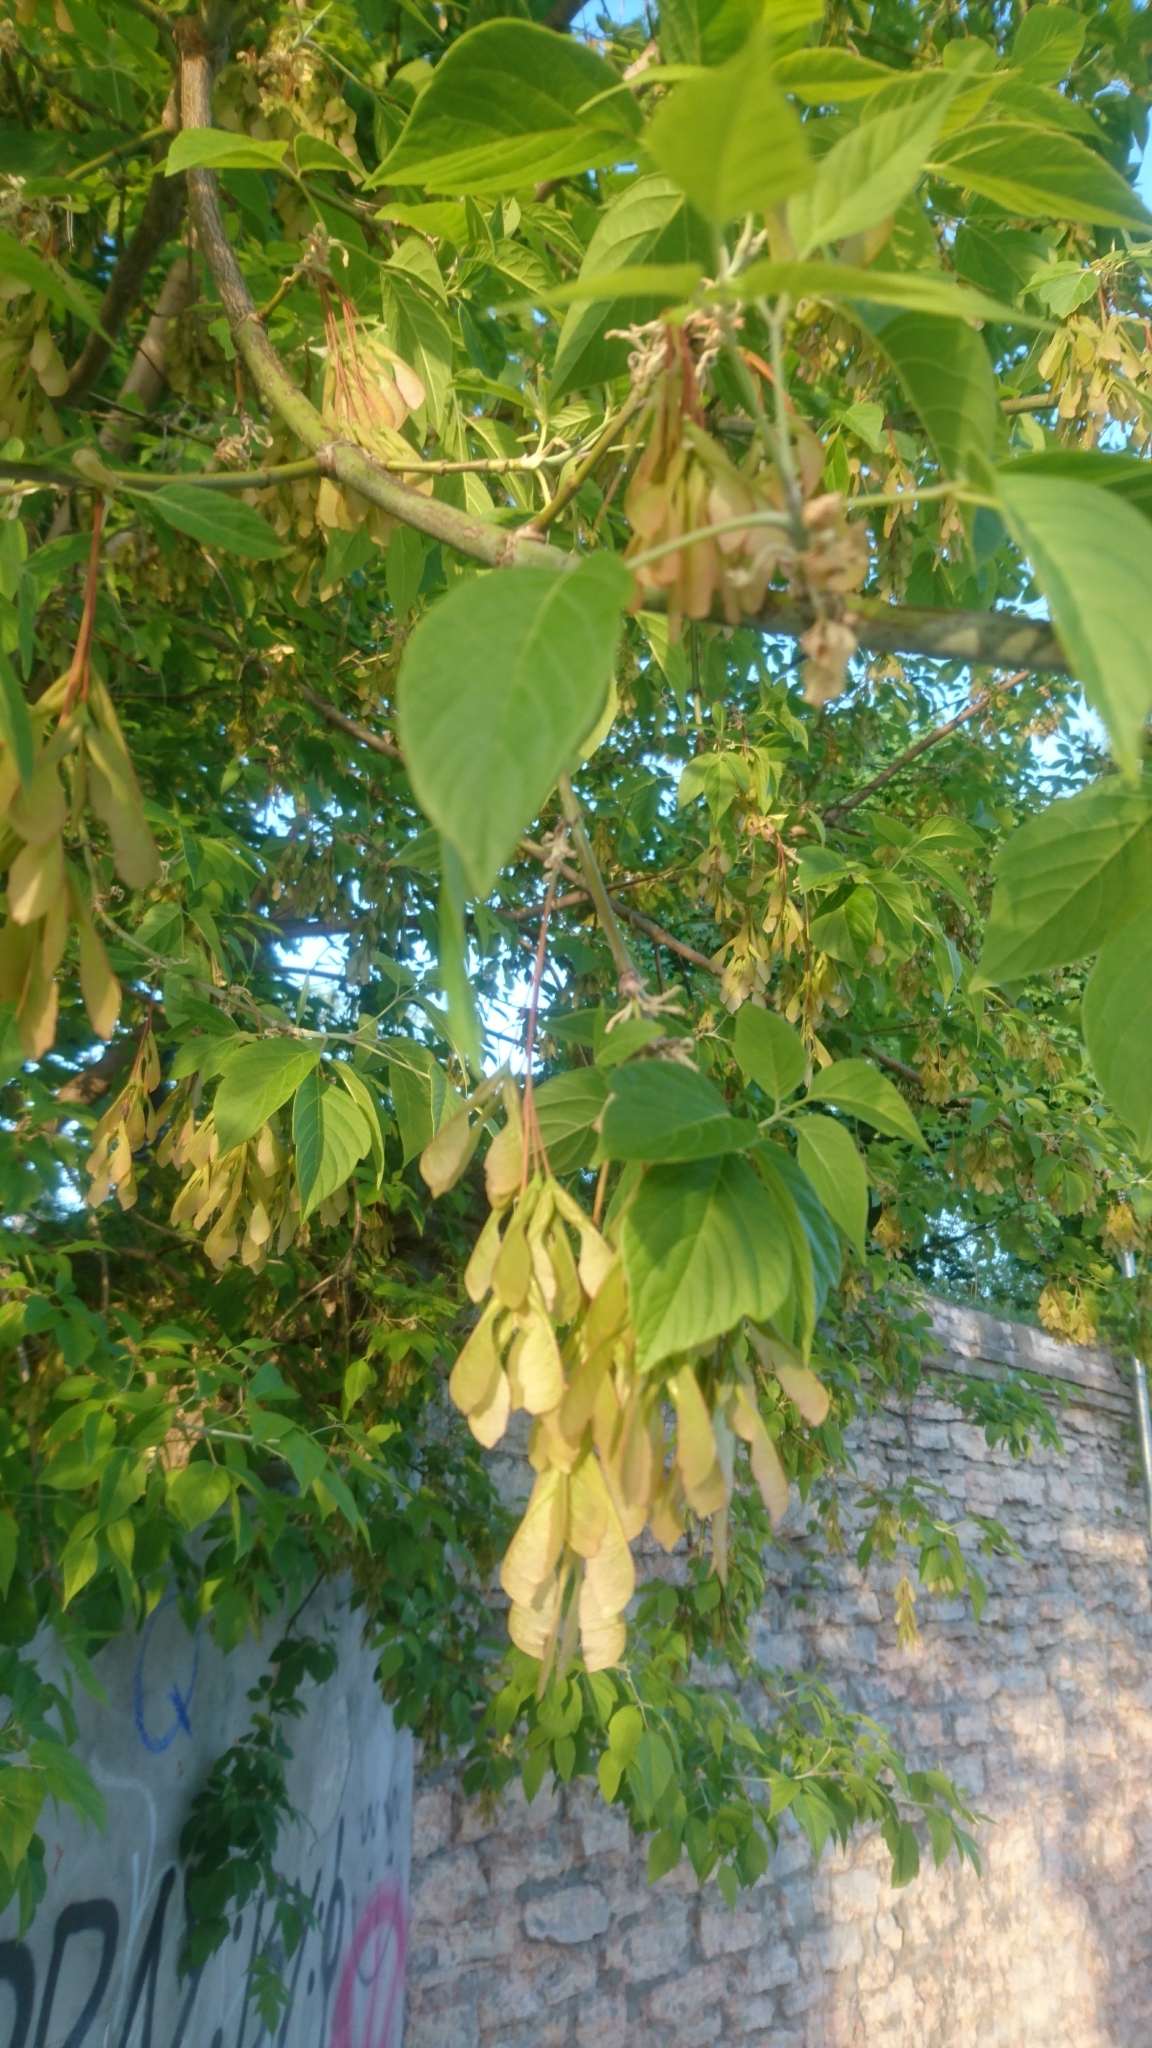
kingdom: Plantae
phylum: Tracheophyta
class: Magnoliopsida
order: Sapindales
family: Sapindaceae
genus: Acer
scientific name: Acer negundo
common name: Ashleaf maple
